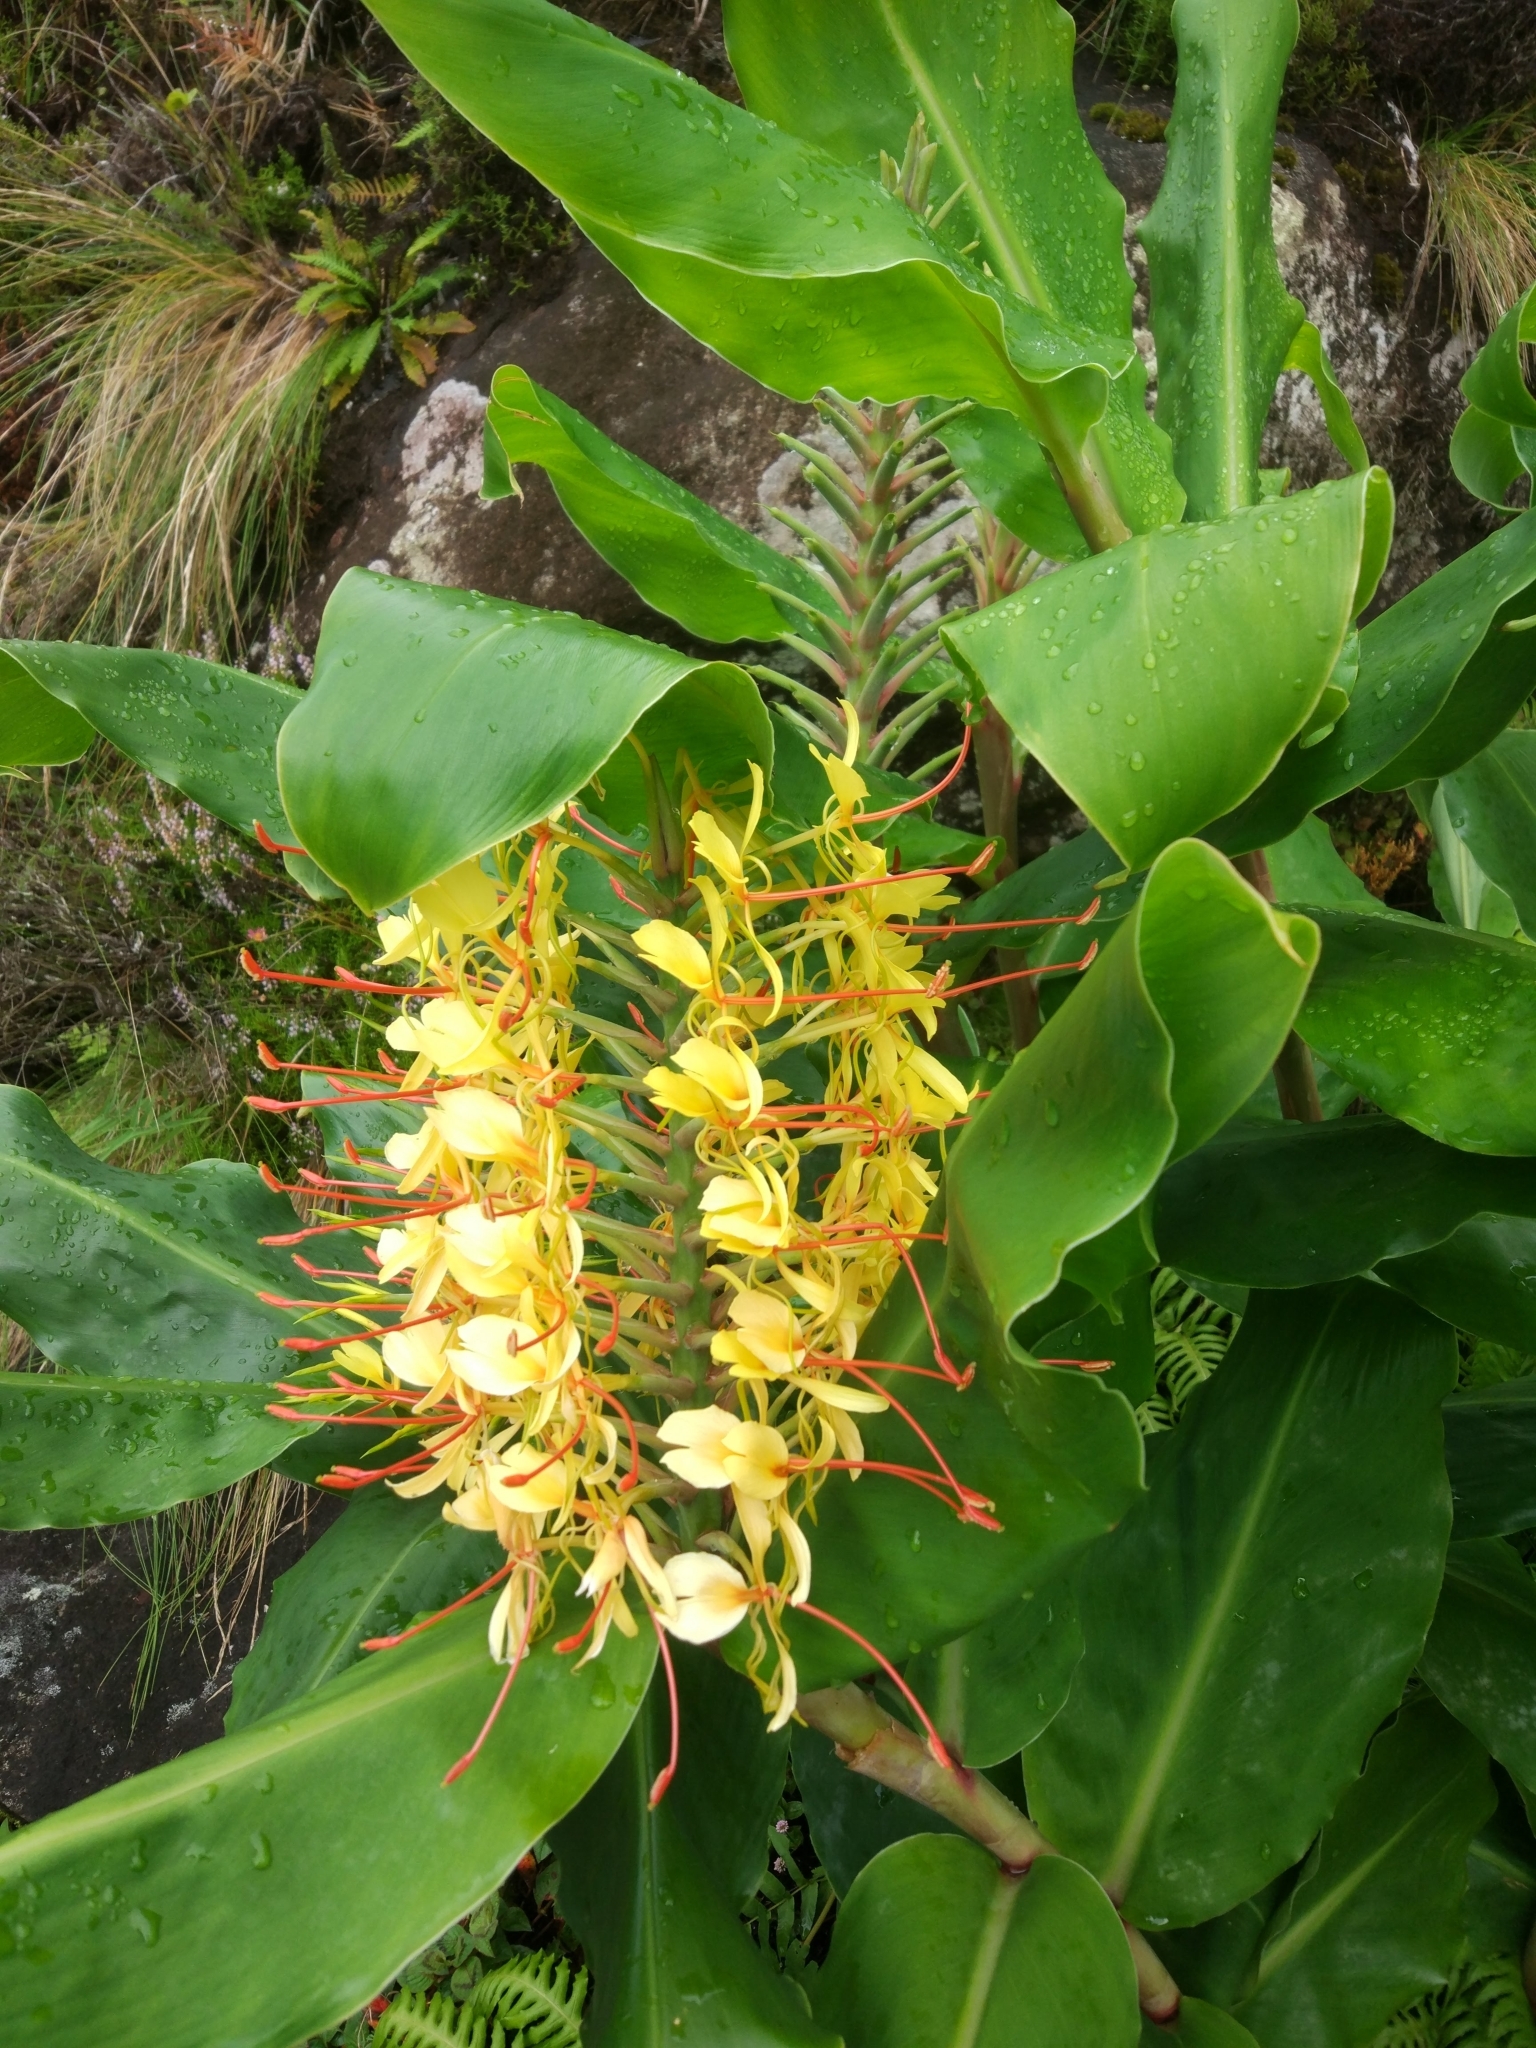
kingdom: Plantae
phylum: Tracheophyta
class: Liliopsida
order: Zingiberales
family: Zingiberaceae
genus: Hedychium
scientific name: Hedychium gardnerianum
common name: Himalayan ginger
